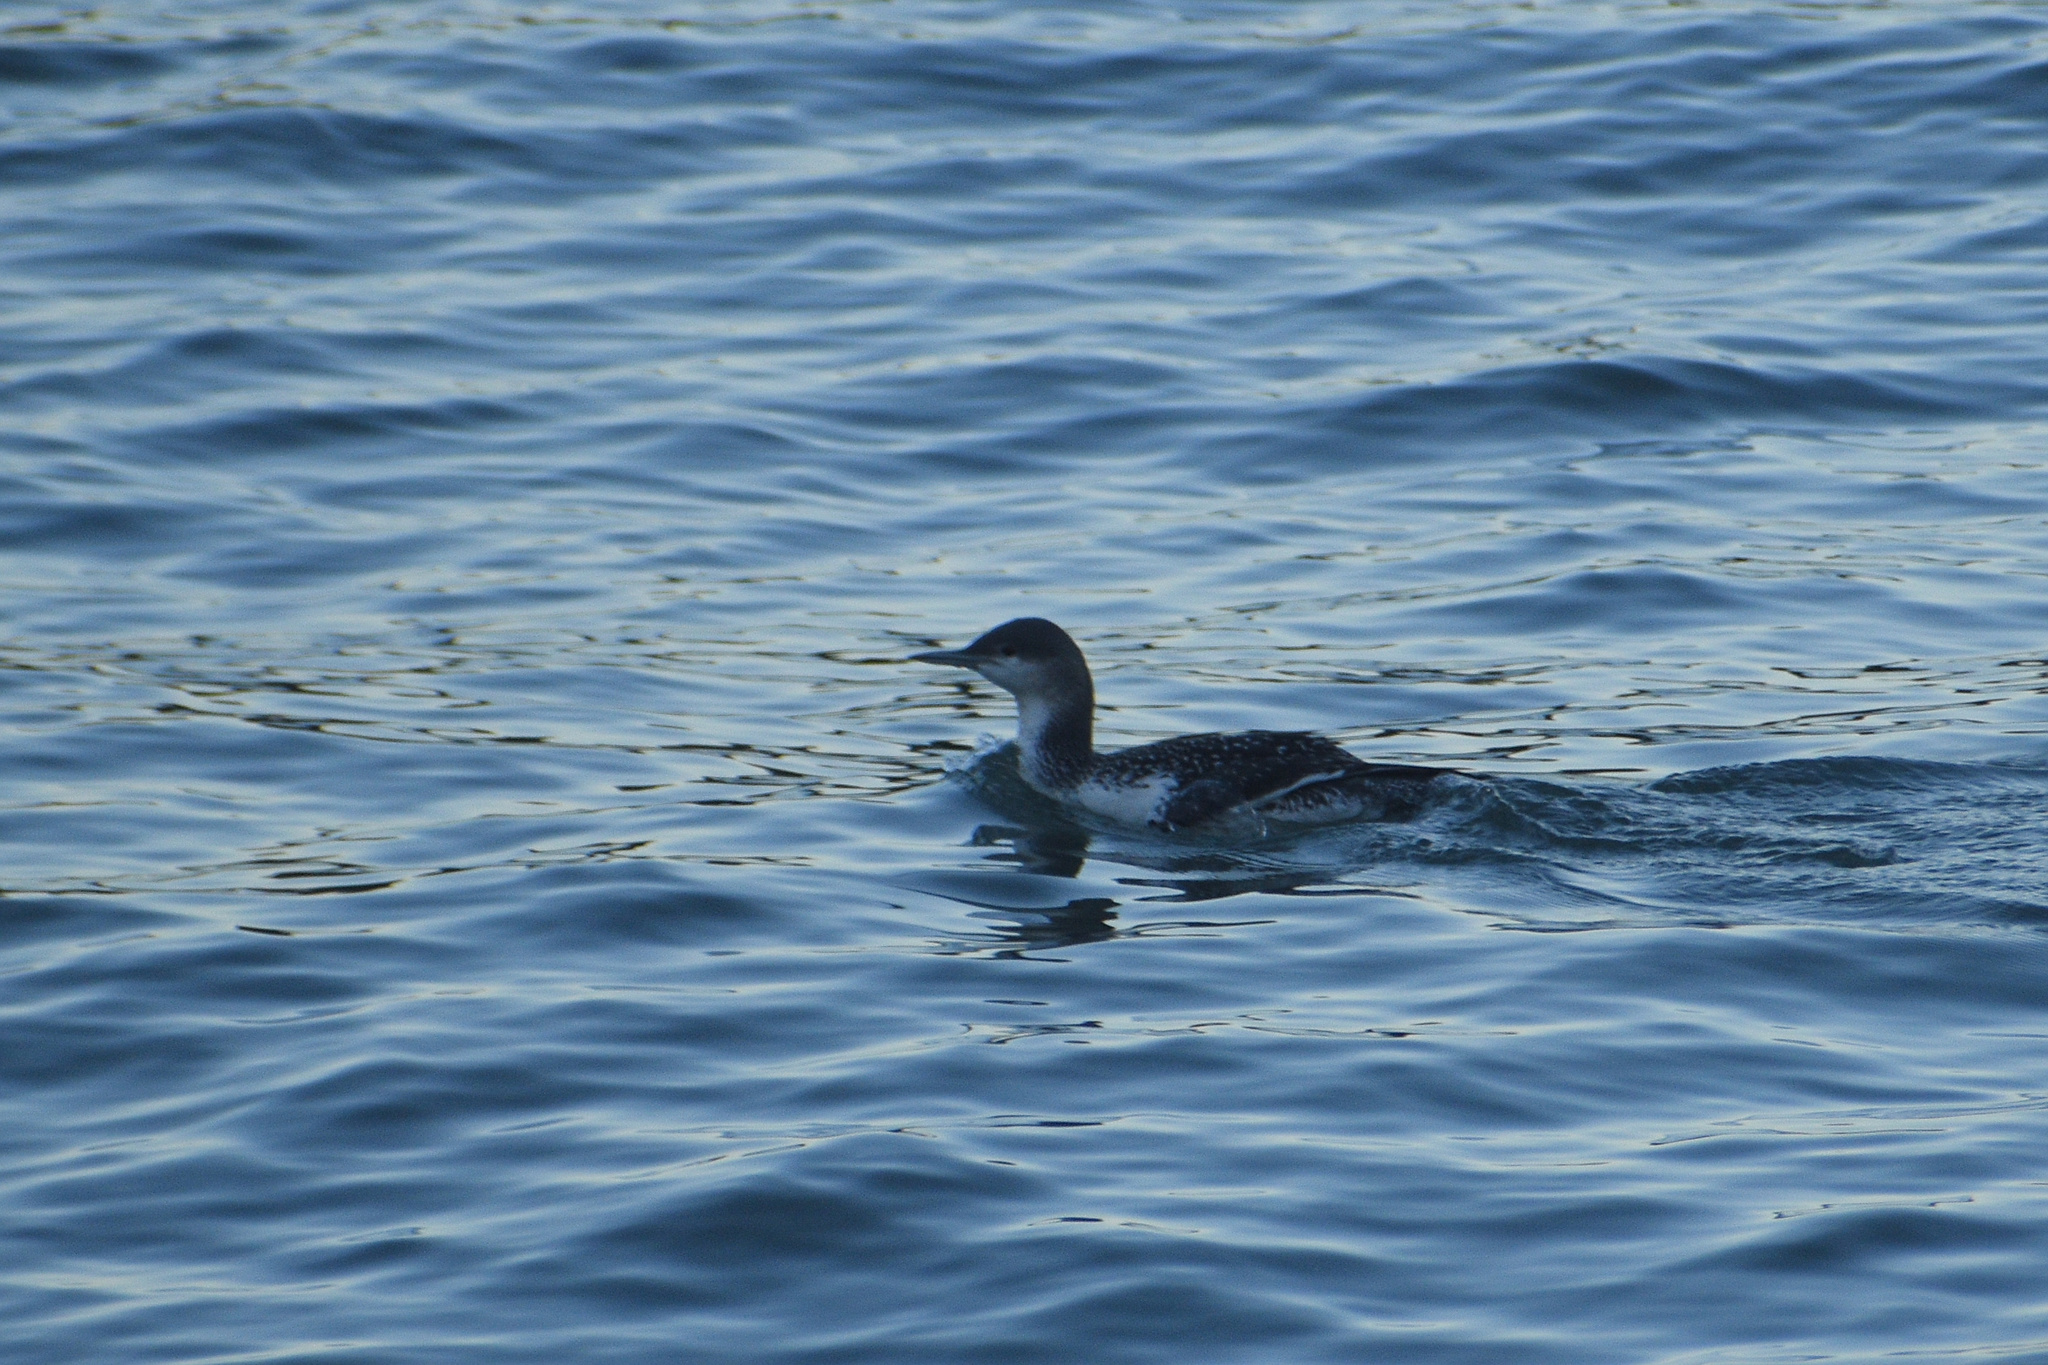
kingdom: Animalia
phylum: Chordata
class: Aves
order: Gaviiformes
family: Gaviidae
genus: Gavia
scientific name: Gavia stellata
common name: Red-throated loon
